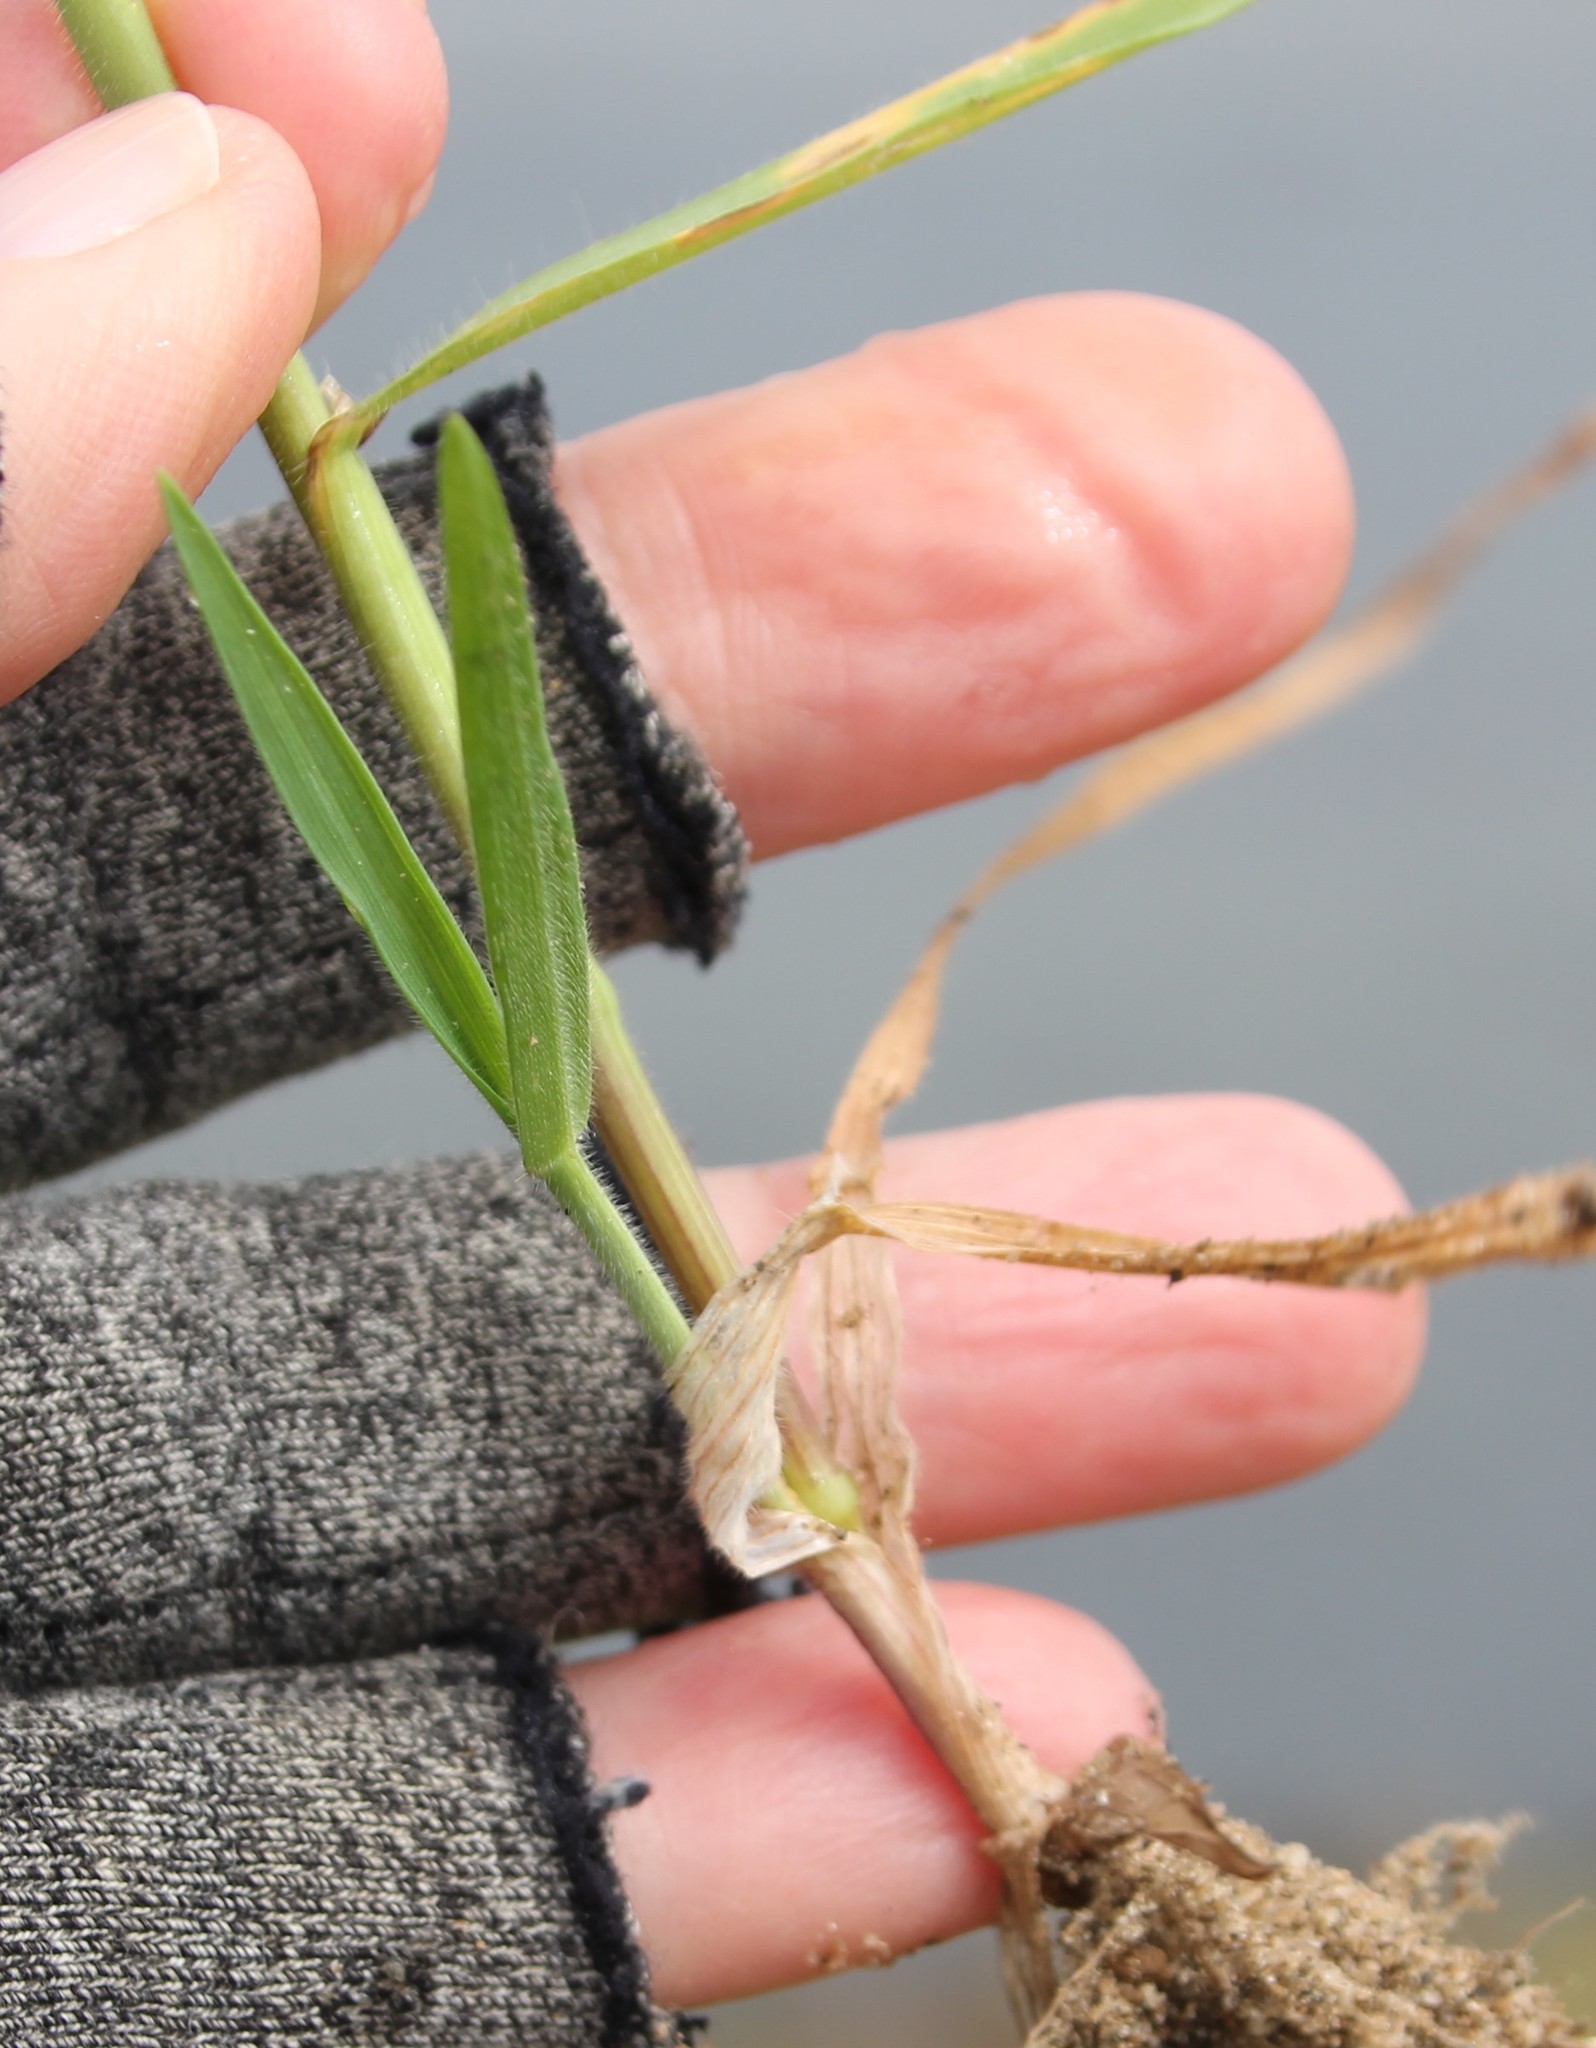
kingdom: Plantae
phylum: Tracheophyta
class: Liliopsida
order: Poales
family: Poaceae
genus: Bromus
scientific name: Bromus diandrus
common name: Ripgut brome
